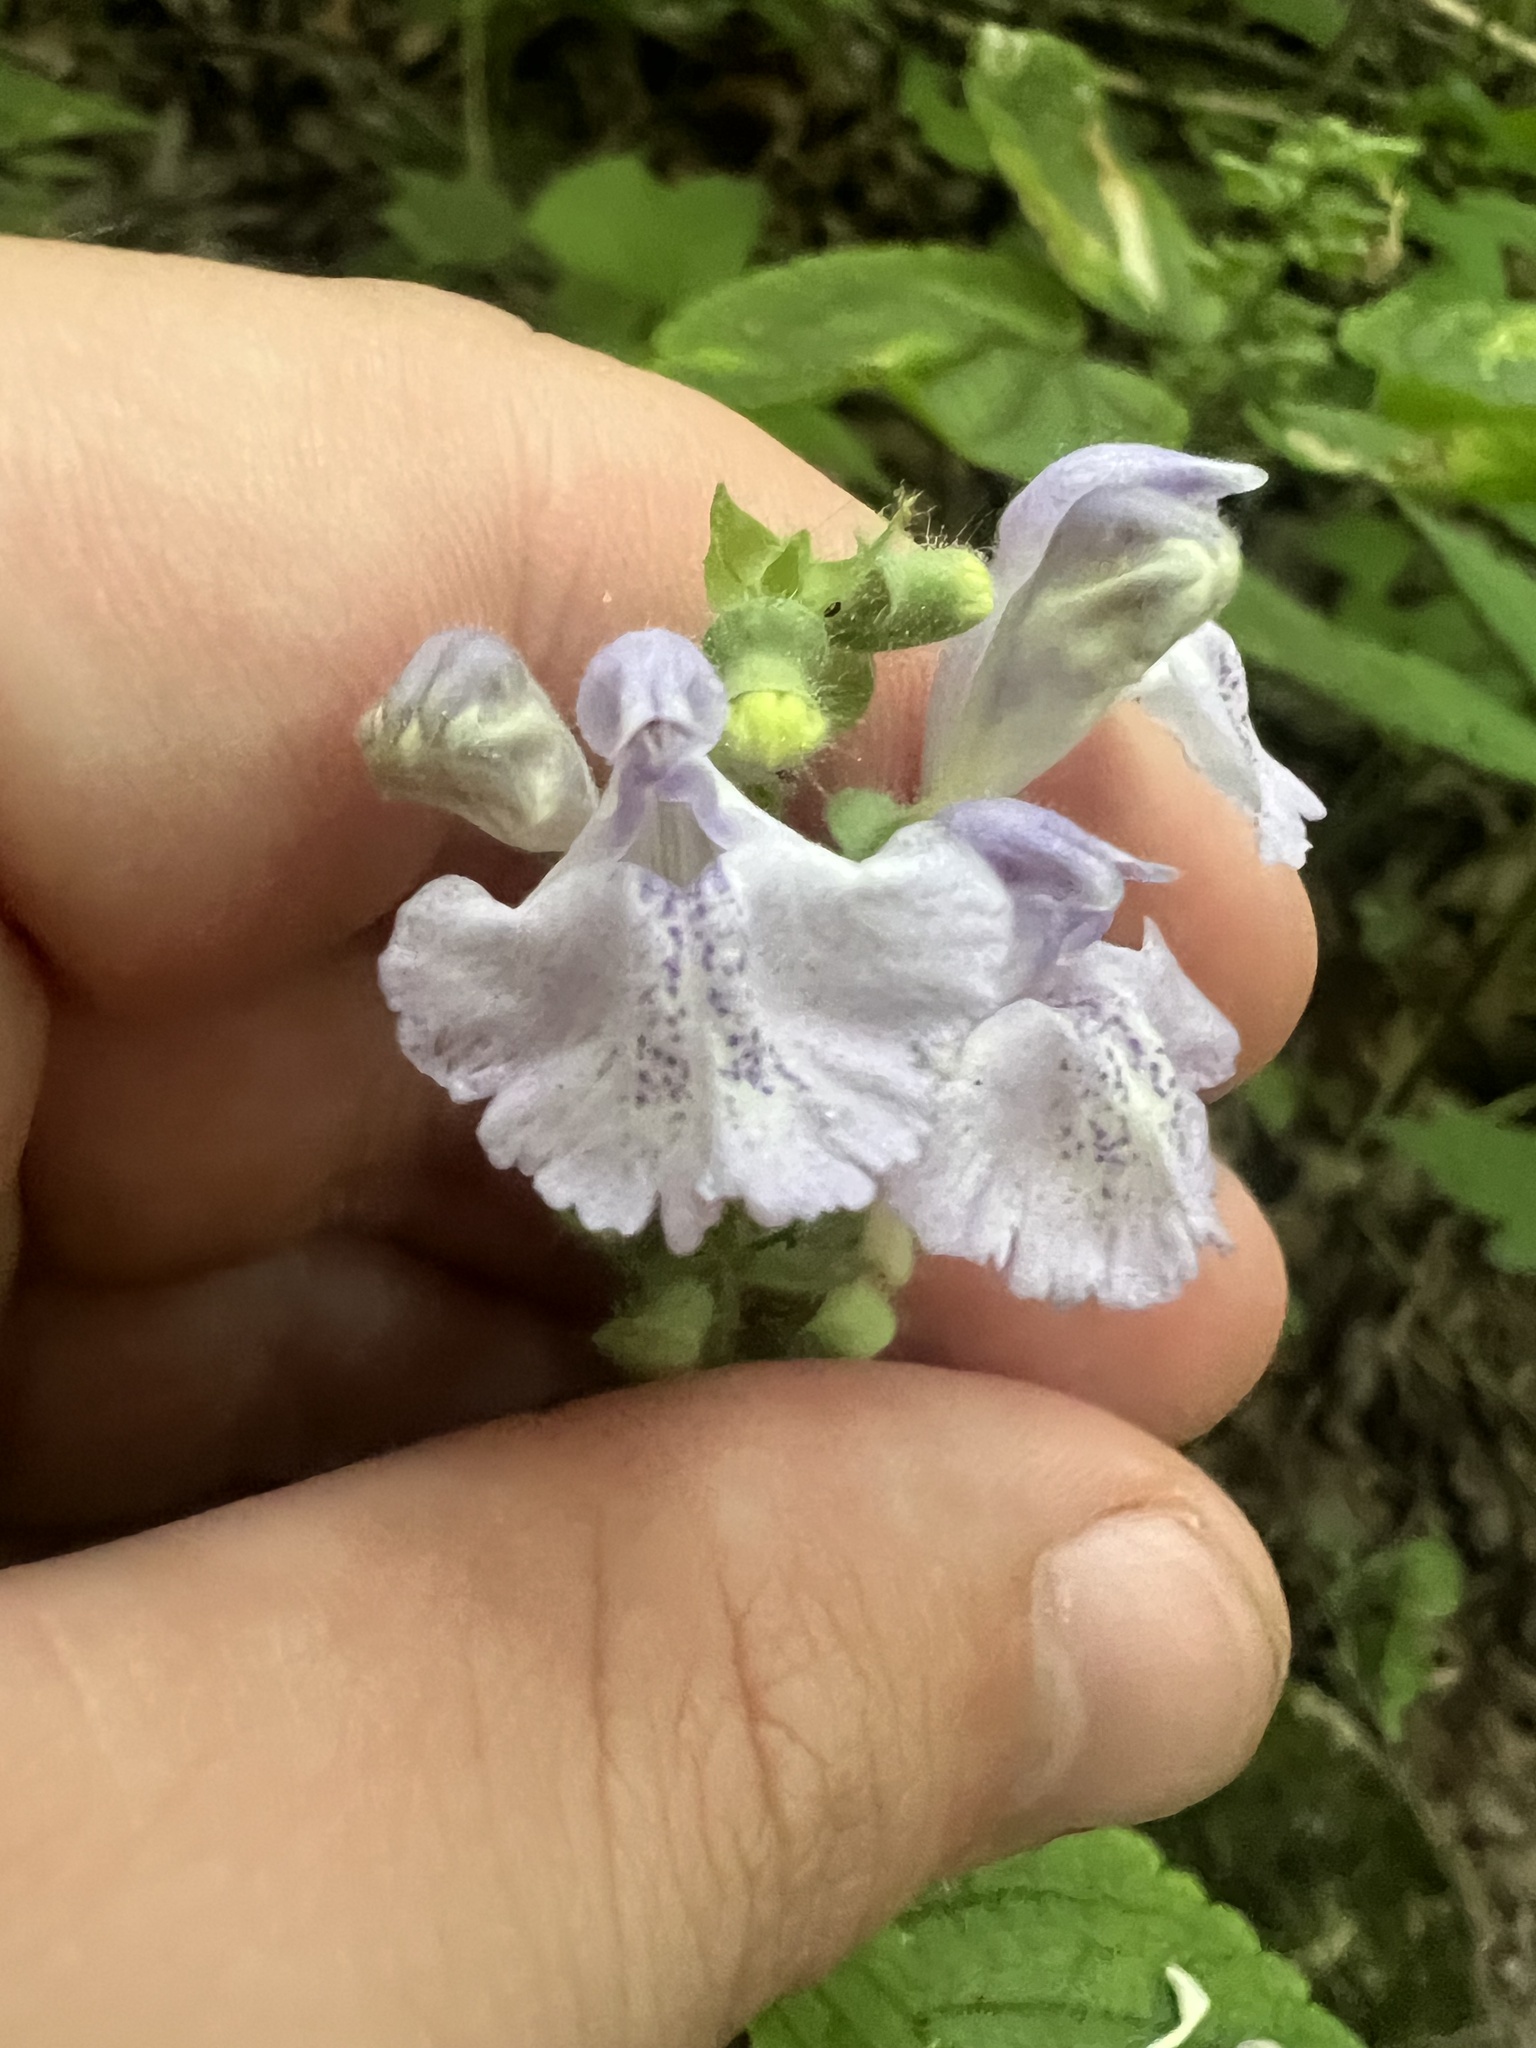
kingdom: Plantae
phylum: Tracheophyta
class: Magnoliopsida
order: Lamiales
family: Lamiaceae
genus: Scutellaria
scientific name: Scutellaria ovata
